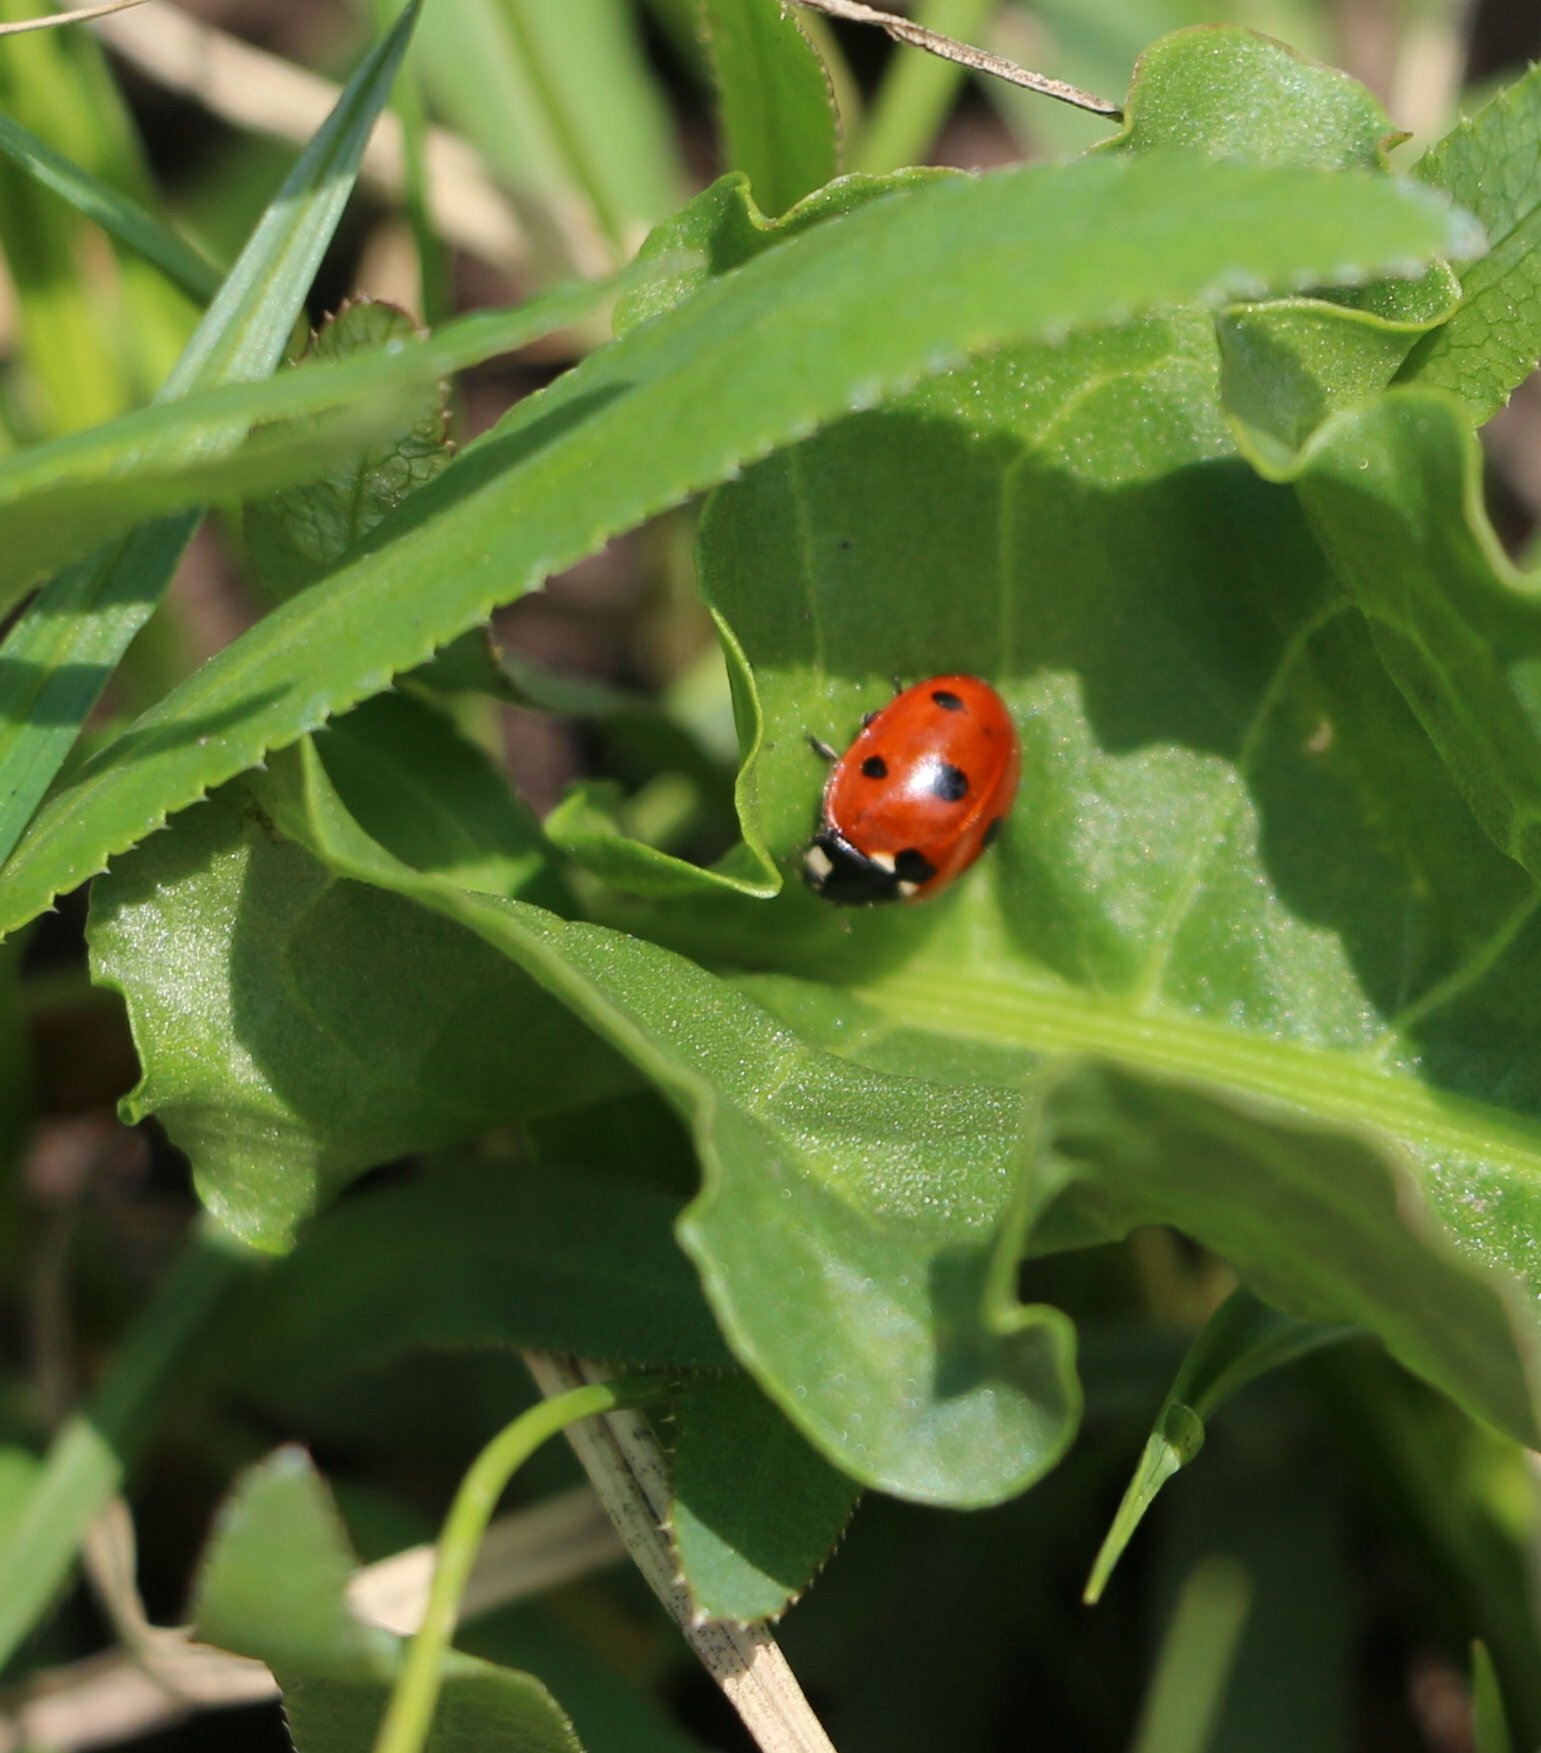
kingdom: Animalia
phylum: Arthropoda
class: Insecta
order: Coleoptera
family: Coccinellidae
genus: Coccinella
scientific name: Coccinella septempunctata
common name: Sevenspotted lady beetle
